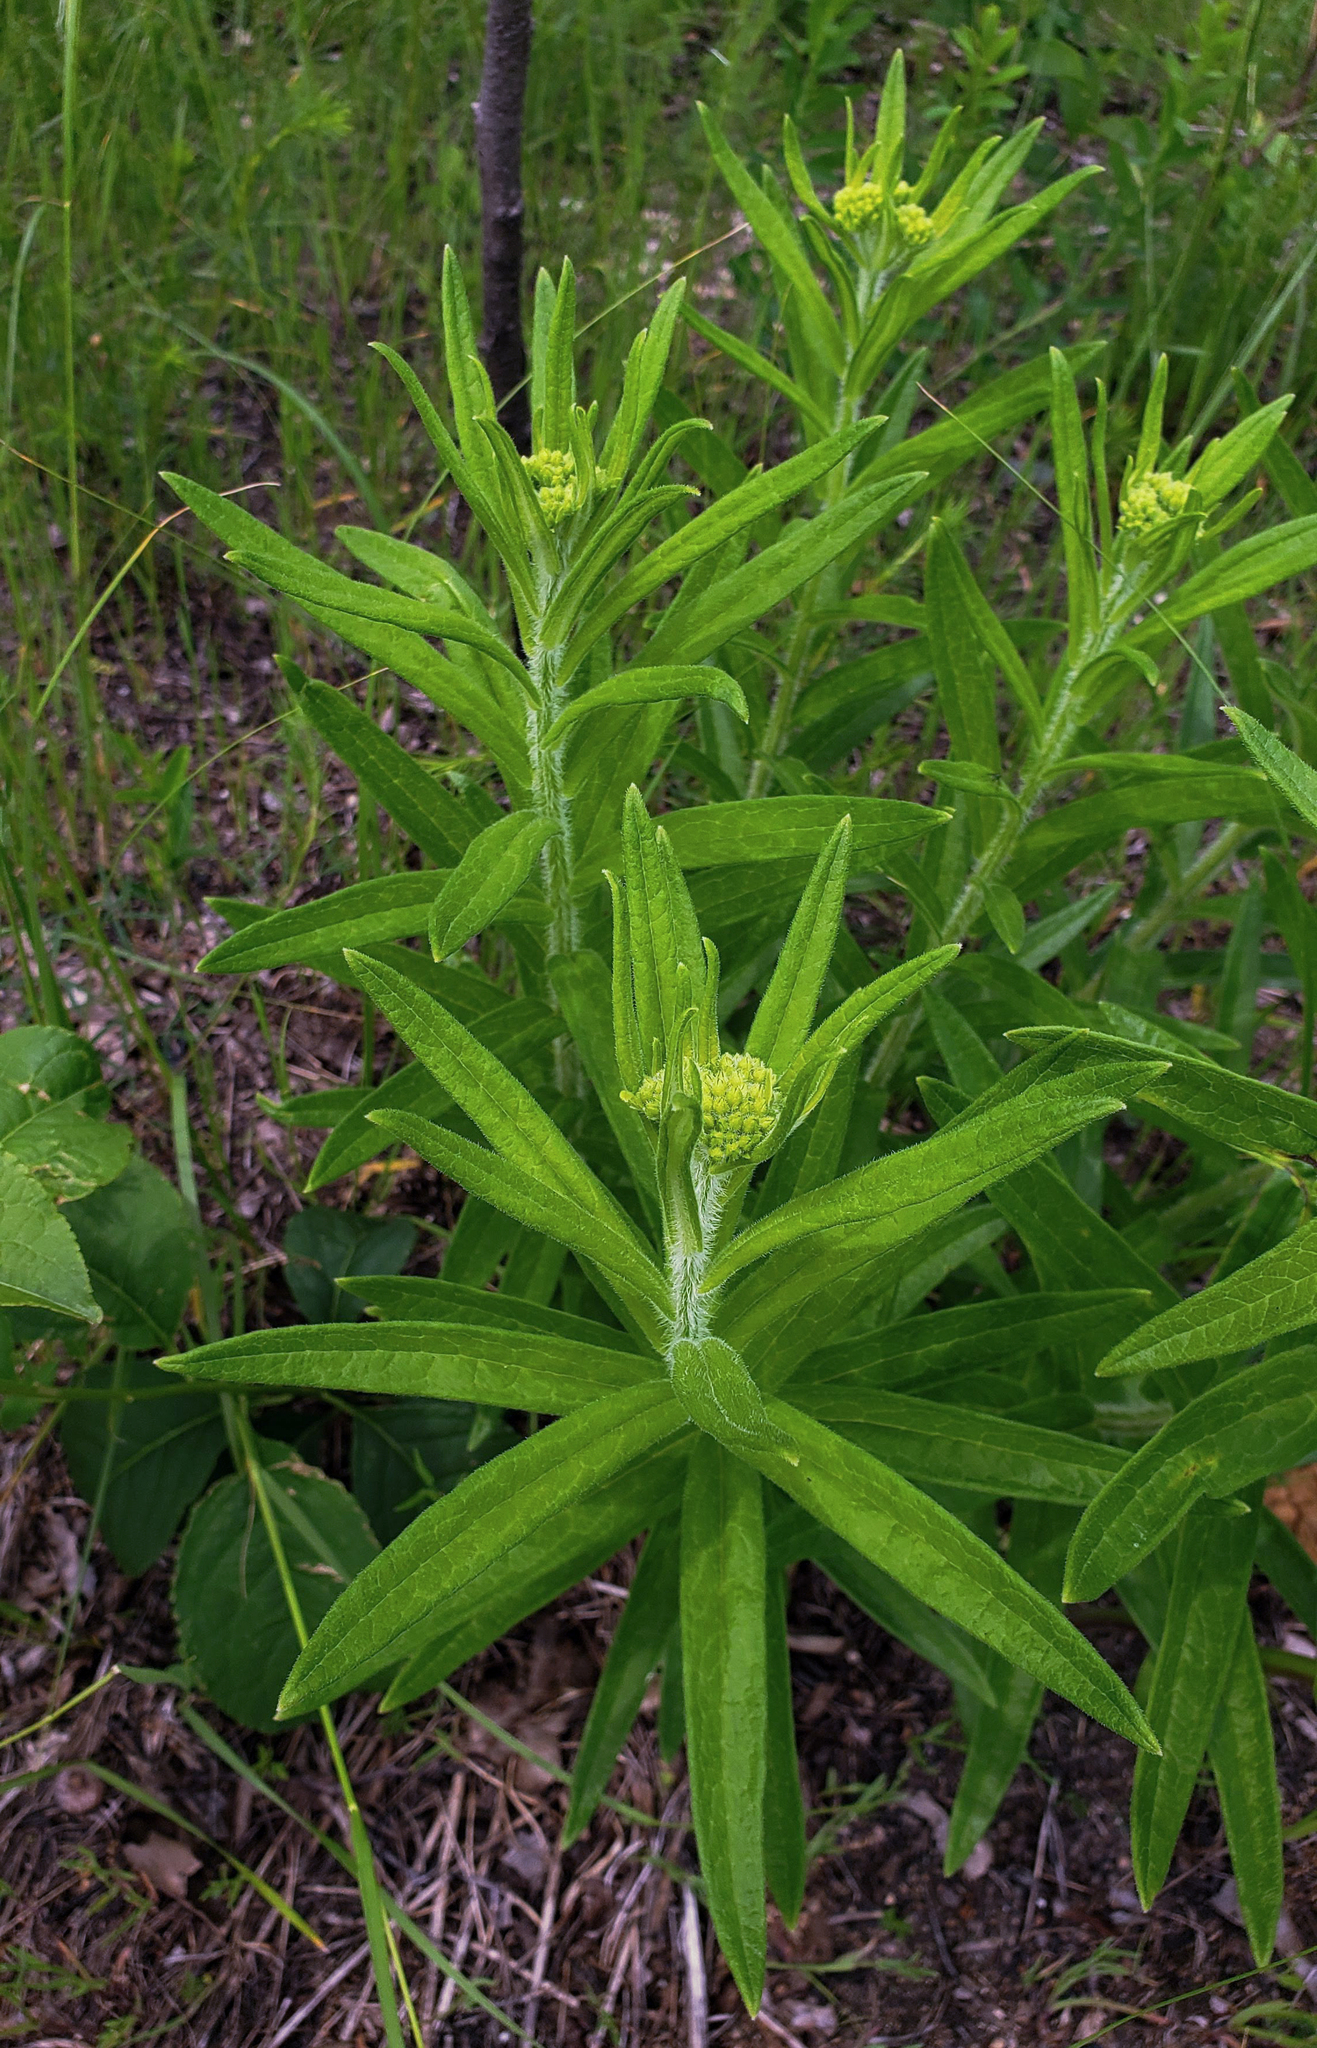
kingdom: Plantae
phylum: Tracheophyta
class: Magnoliopsida
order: Gentianales
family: Apocynaceae
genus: Asclepias
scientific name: Asclepias tuberosa
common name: Butterfly milkweed
